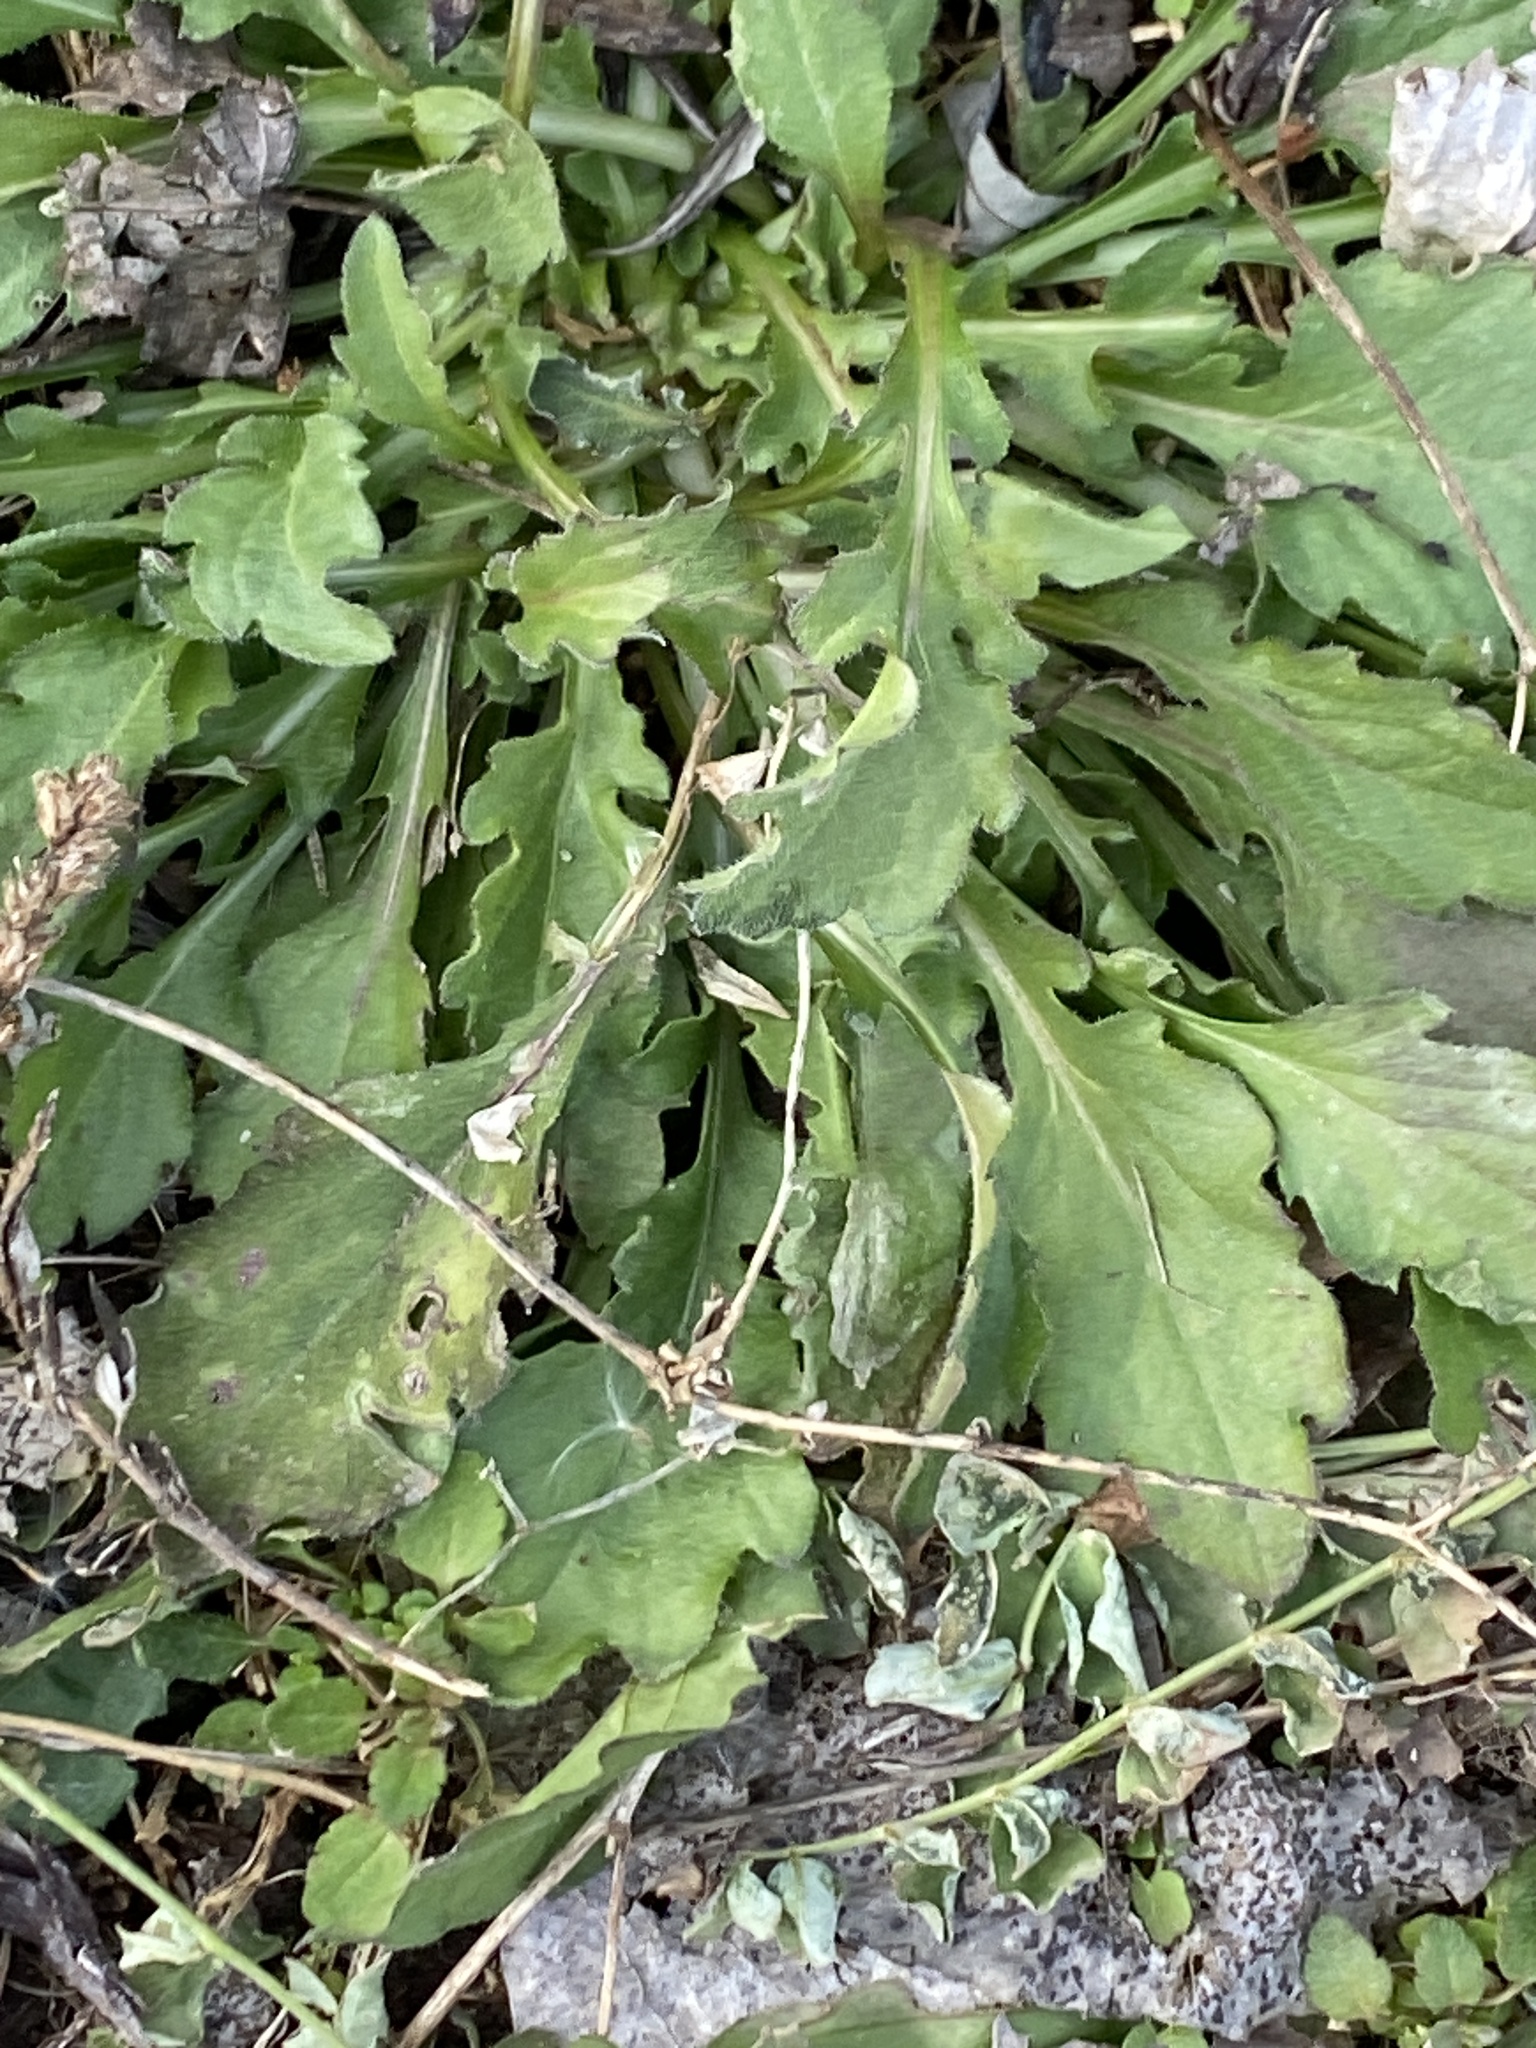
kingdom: Plantae
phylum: Tracheophyta
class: Magnoliopsida
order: Asterales
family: Asteraceae
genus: Erigeron
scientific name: Erigeron canadensis
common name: Canadian fleabane
